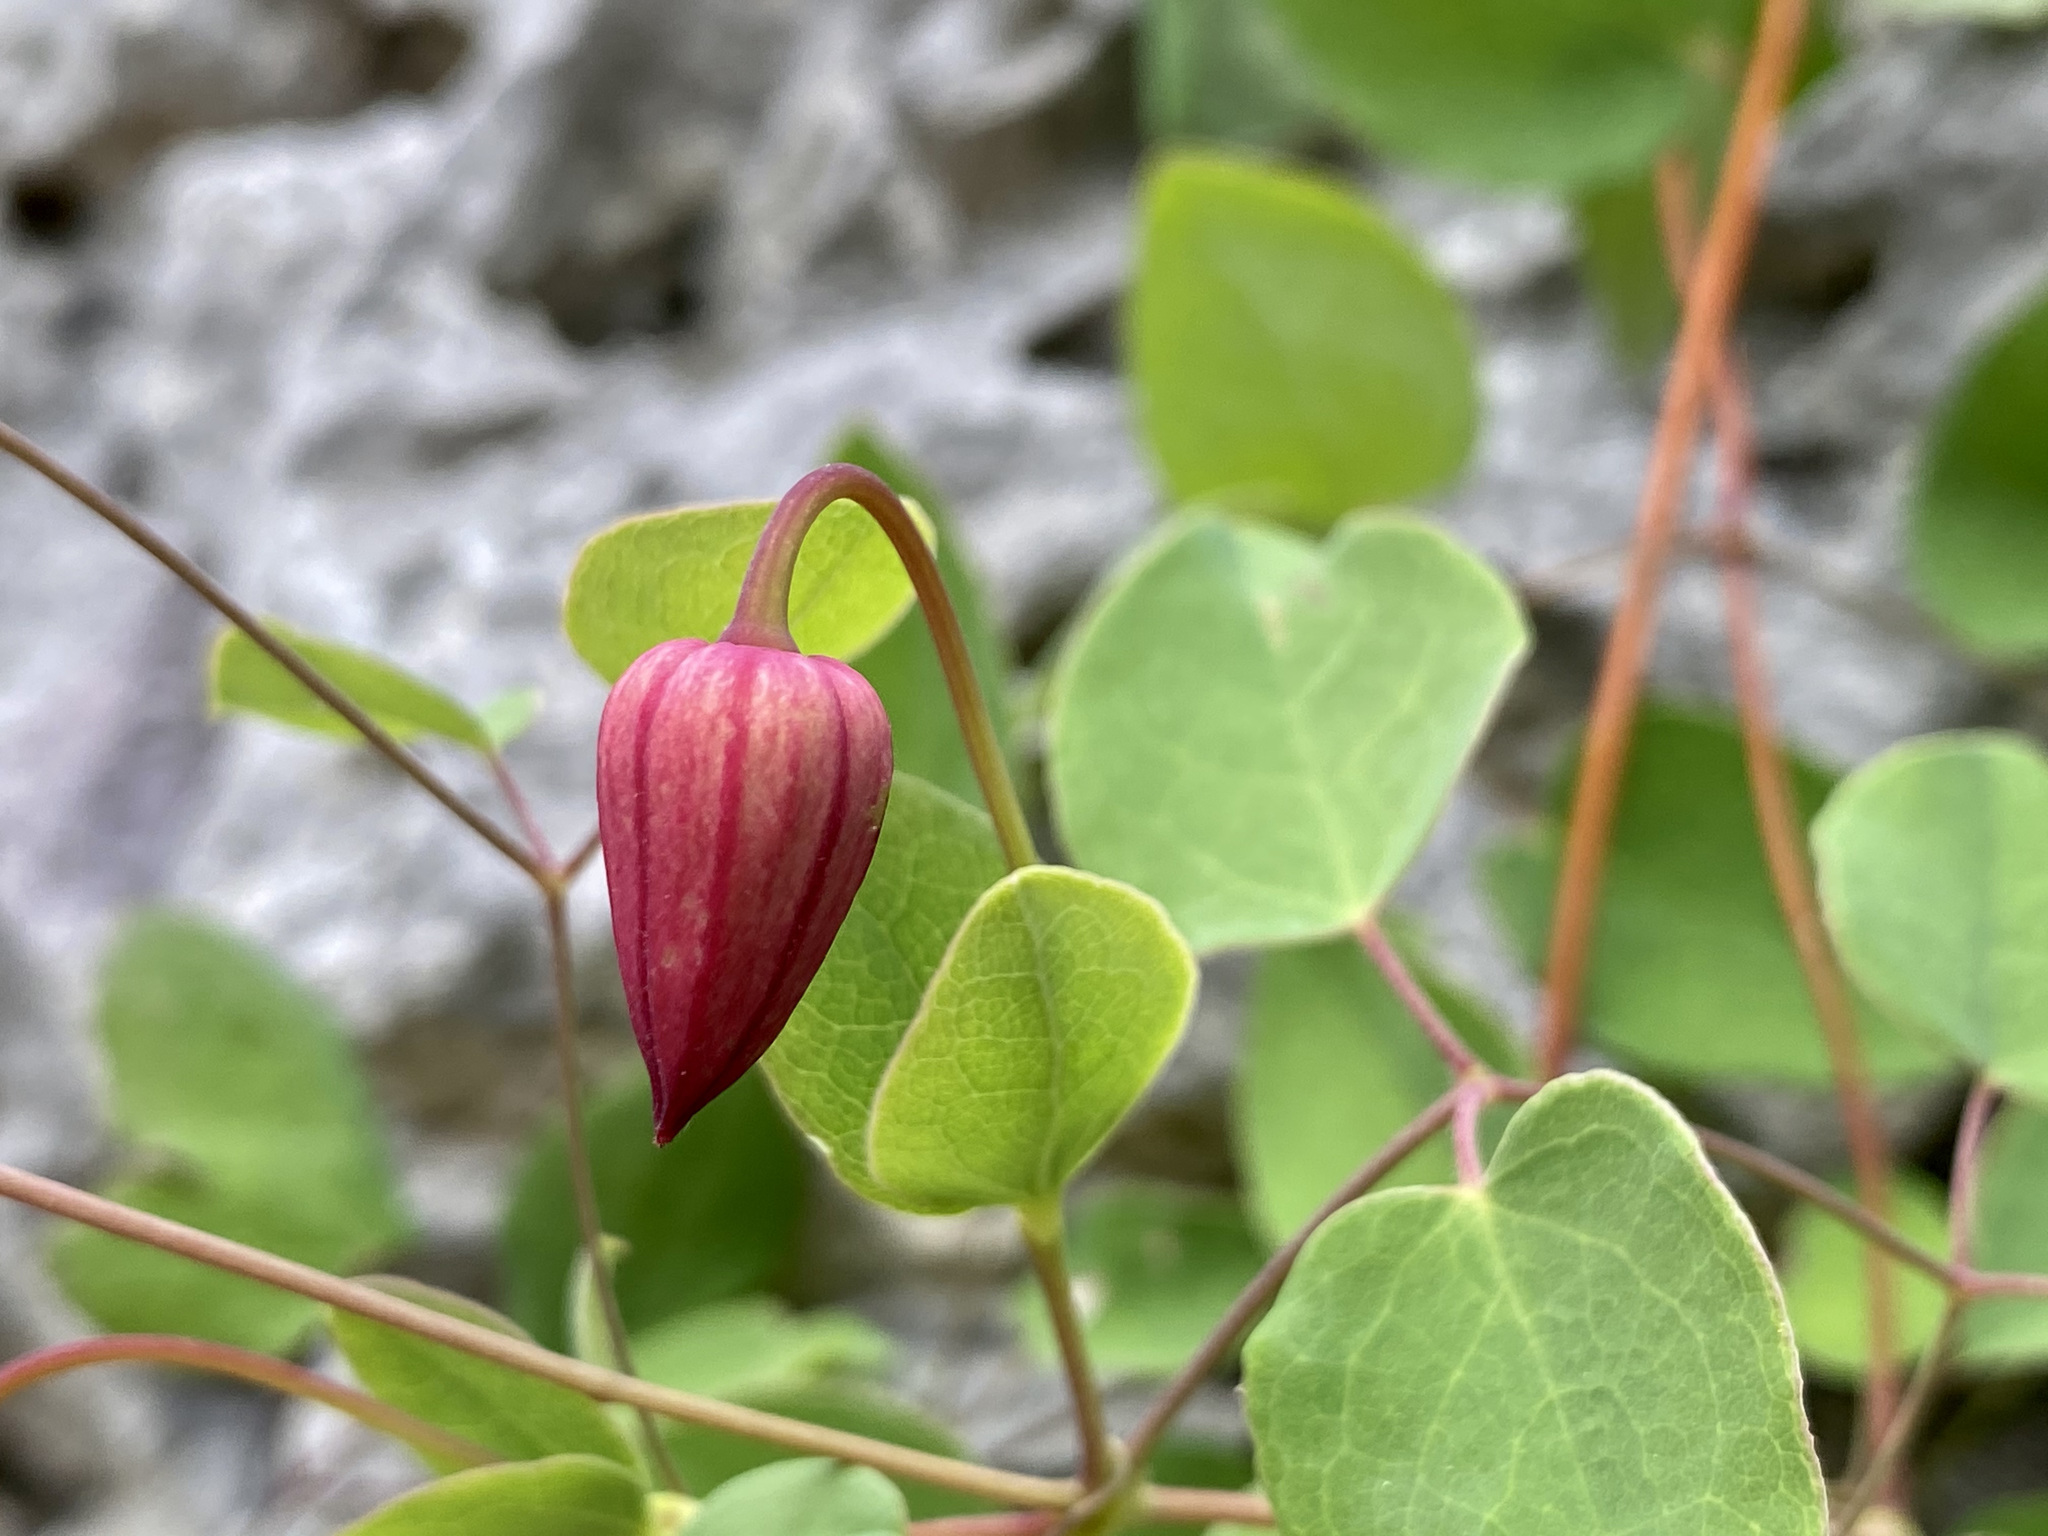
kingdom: Plantae
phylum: Tracheophyta
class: Magnoliopsida
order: Ranunculales
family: Ranunculaceae
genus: Clematis
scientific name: Clematis texensis
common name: Crimson clematis
